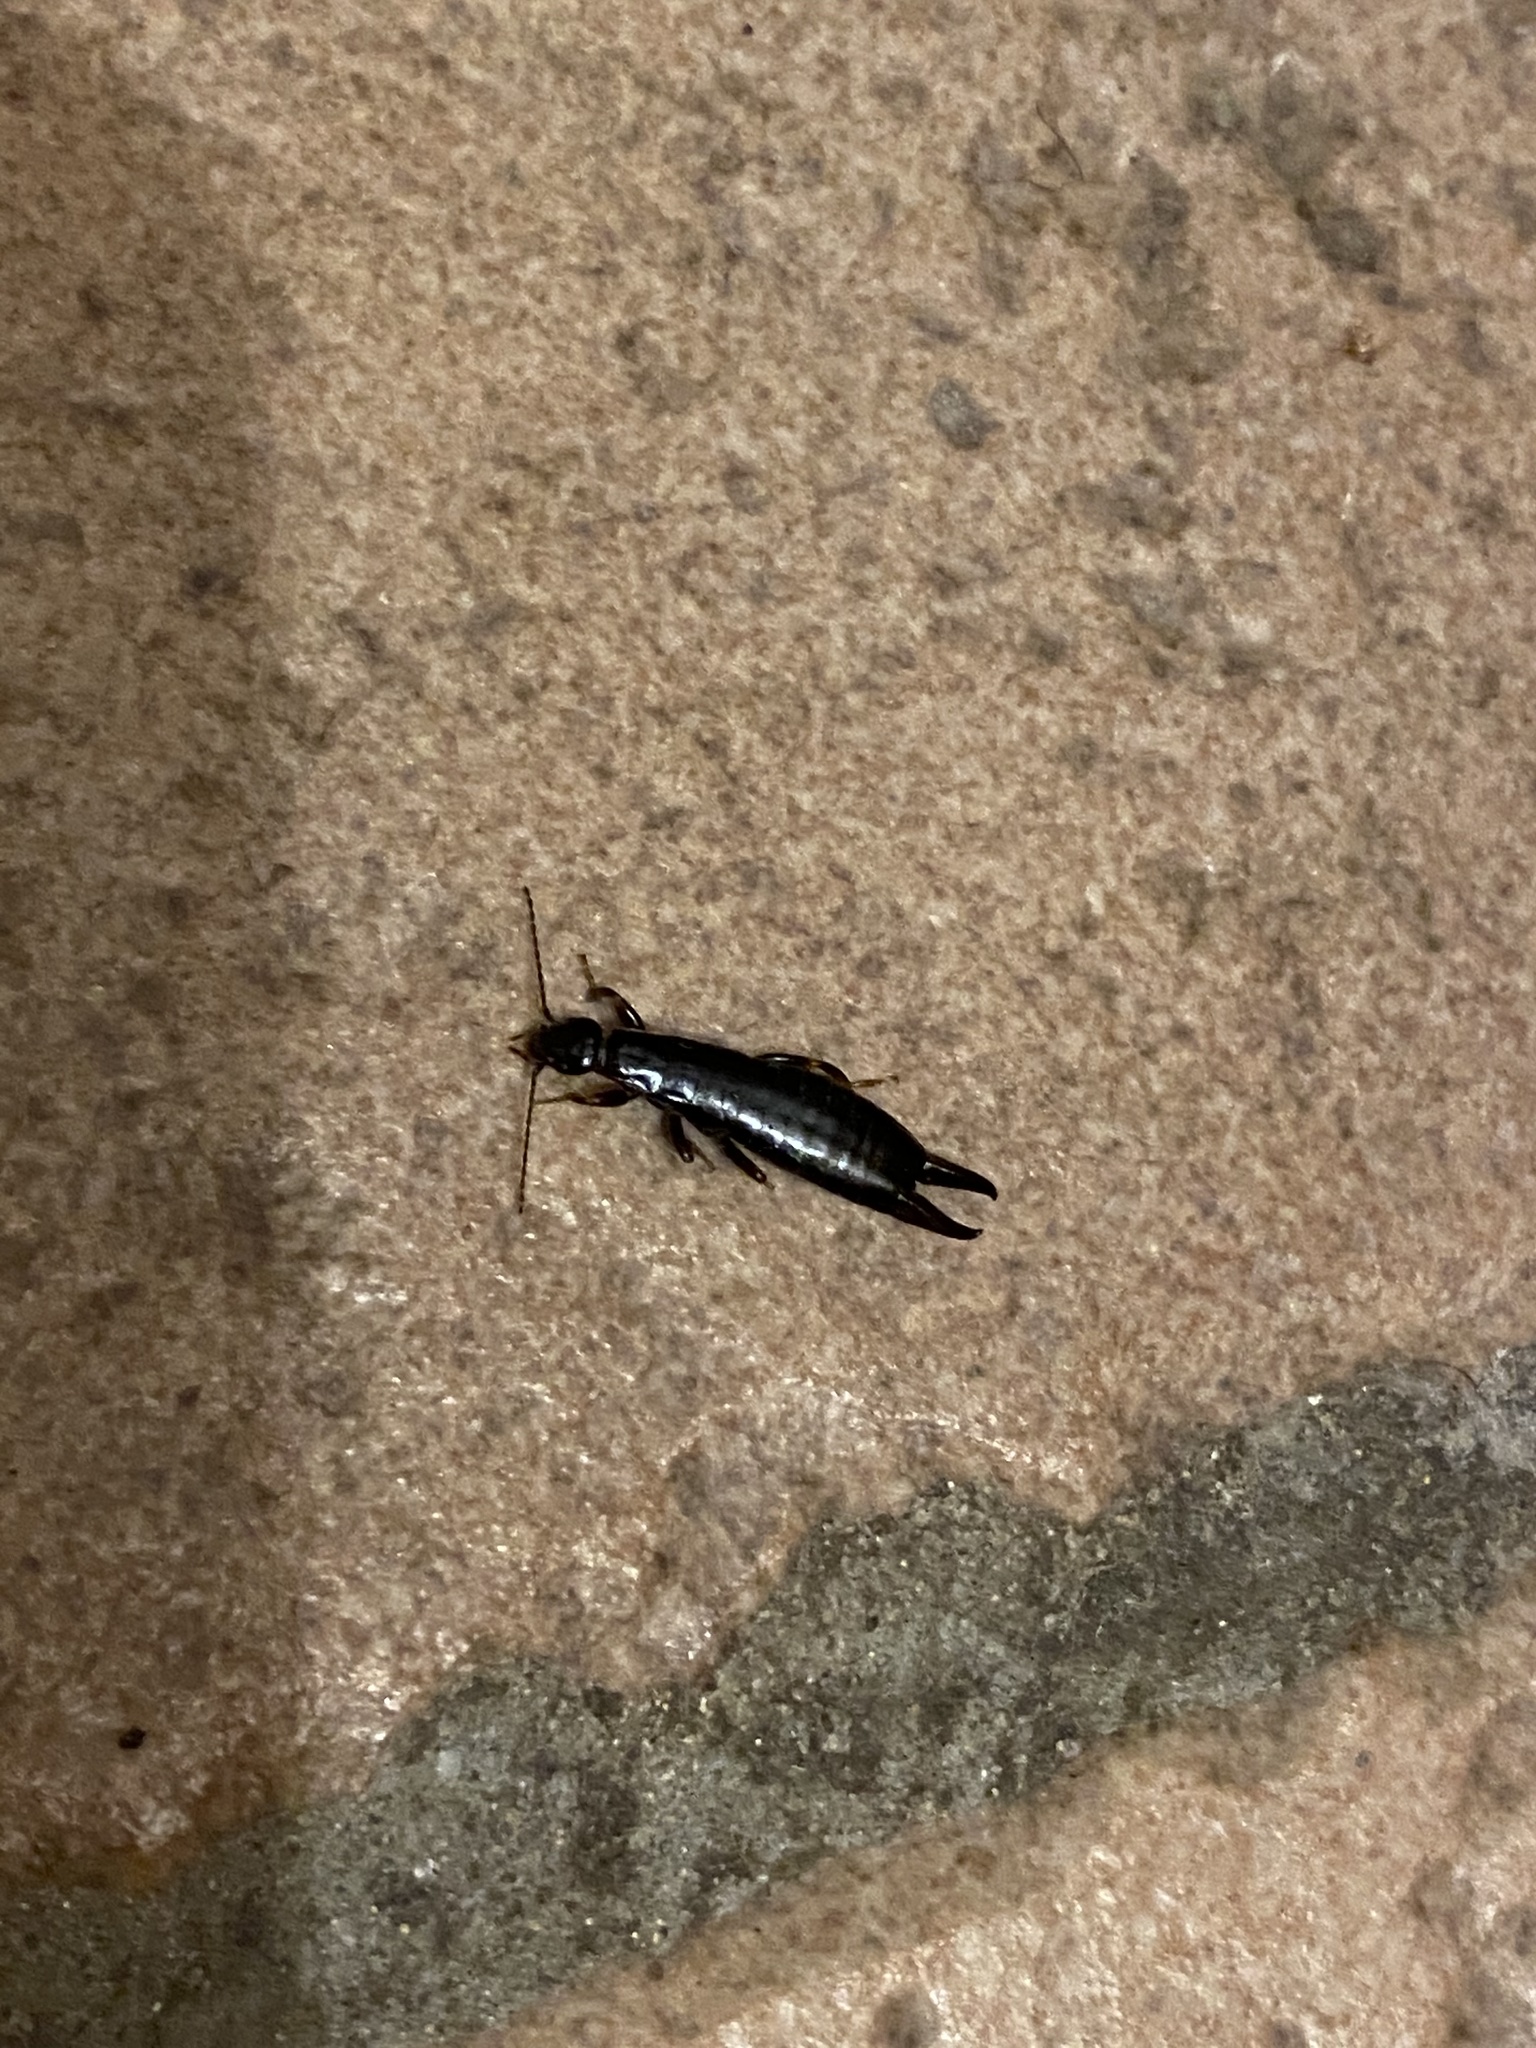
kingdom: Animalia
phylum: Arthropoda
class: Insecta
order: Dermaptera
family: Anisolabididae
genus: Euborellia
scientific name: Euborellia moesta
